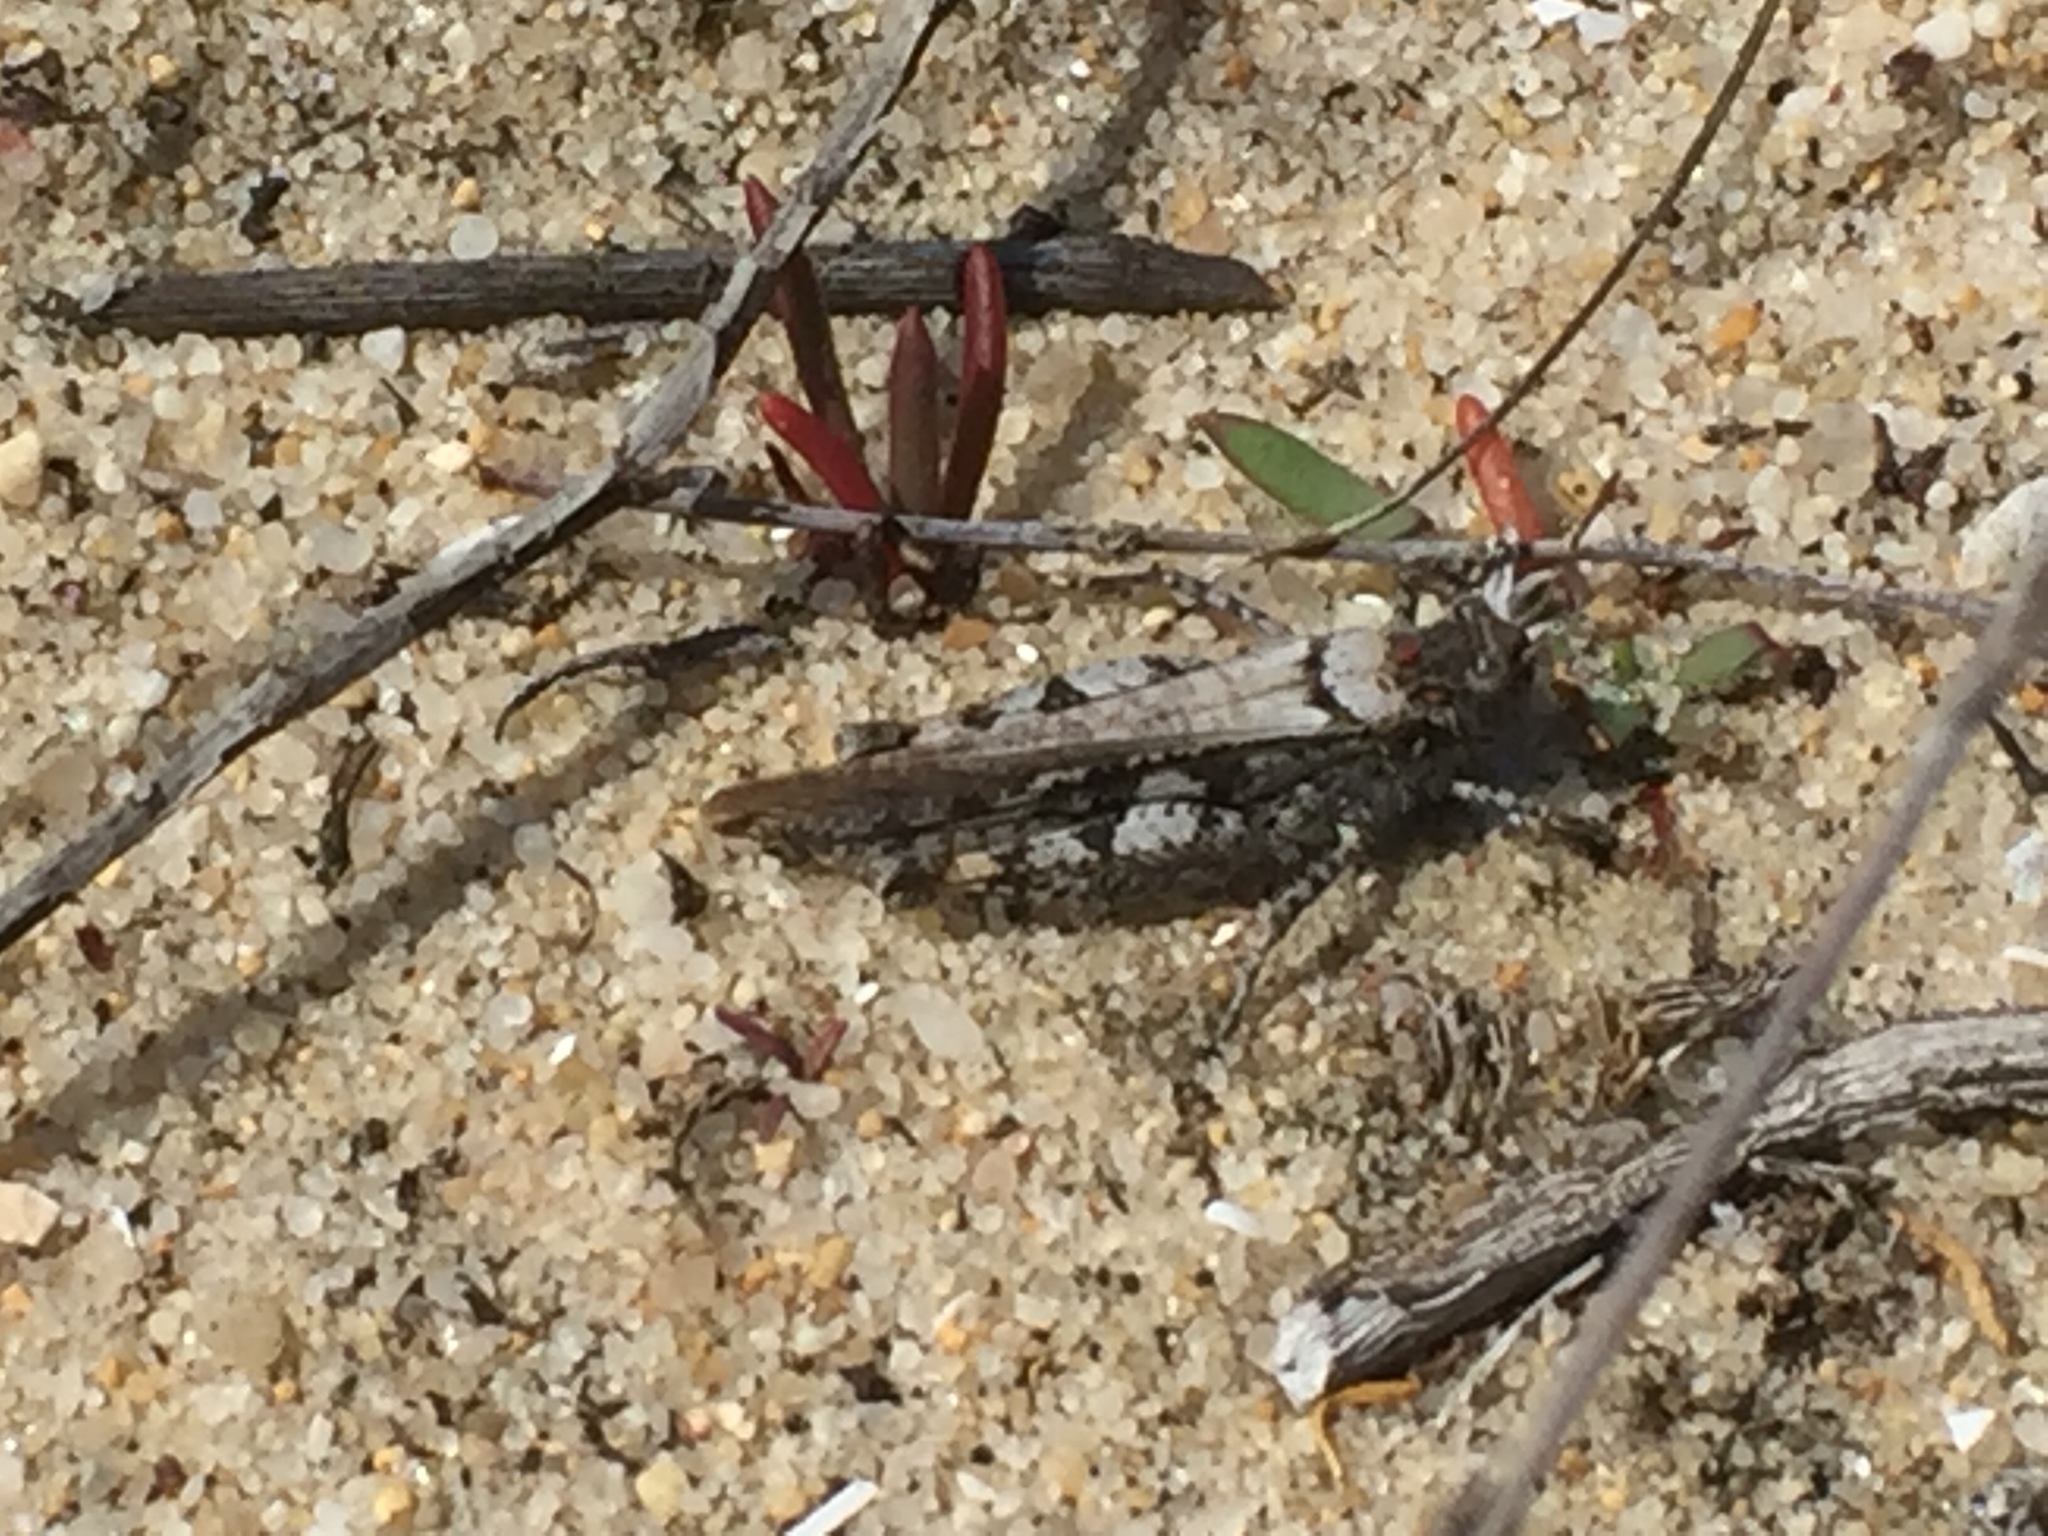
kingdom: Animalia
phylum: Arthropoda
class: Insecta
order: Orthoptera
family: Acrididae
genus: Acrotylus
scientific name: Acrotylus insubricus
